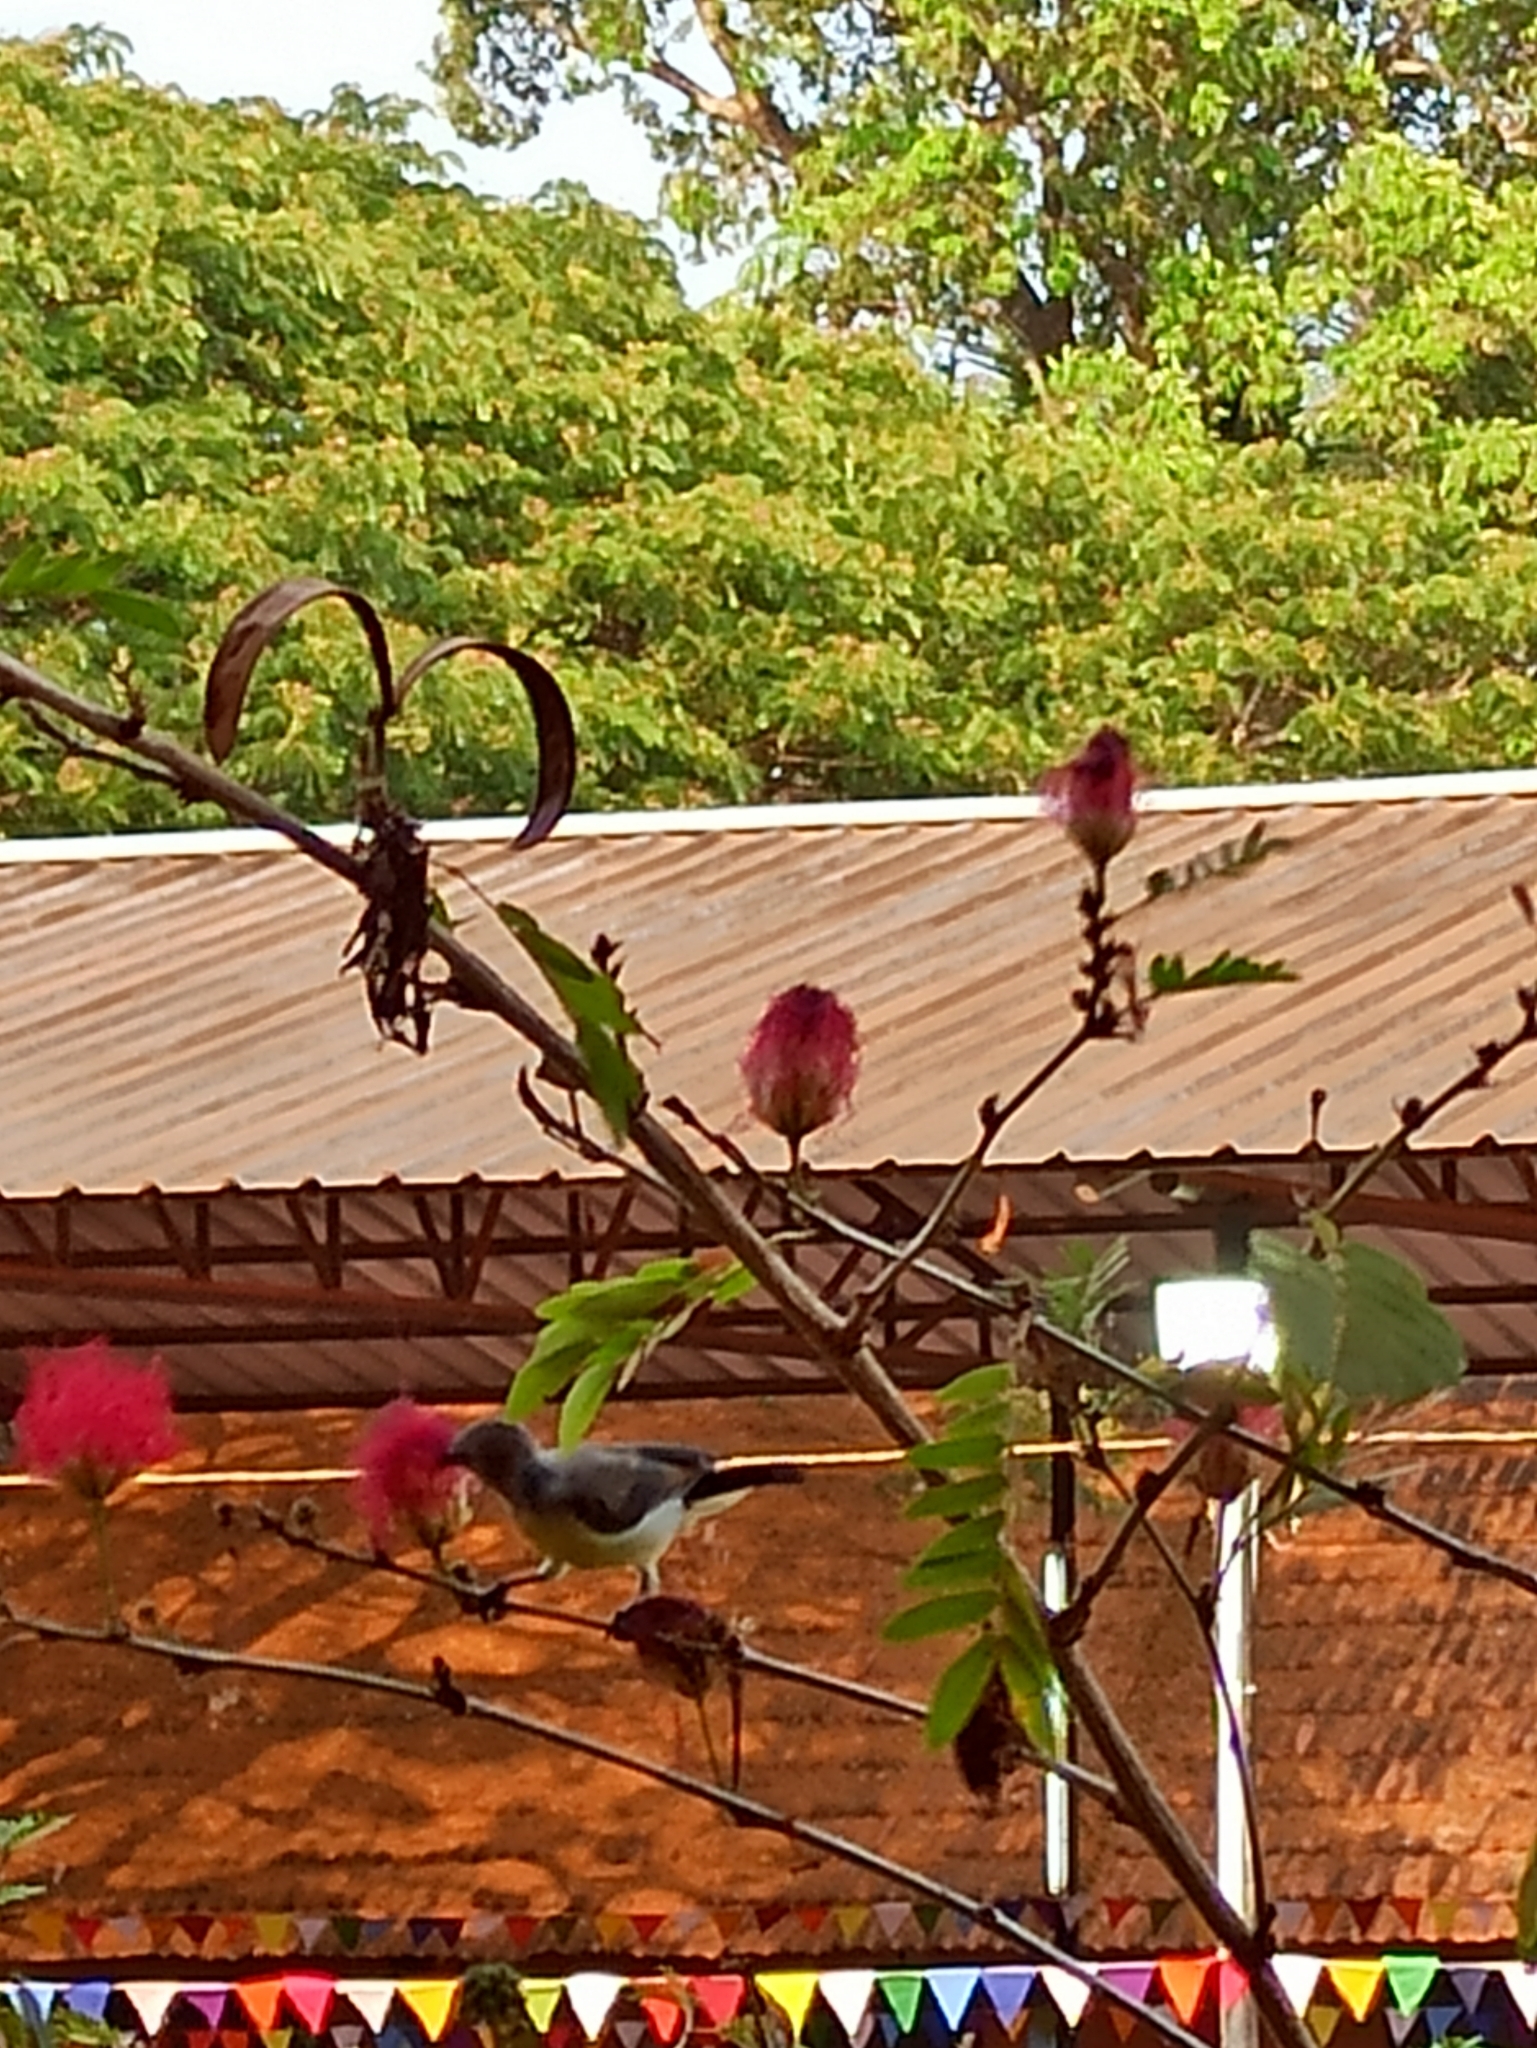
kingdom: Animalia
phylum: Chordata
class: Aves
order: Passeriformes
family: Nectariniidae
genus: Leptocoma
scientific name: Leptocoma zeylonica
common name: Purple-rumped sunbird
